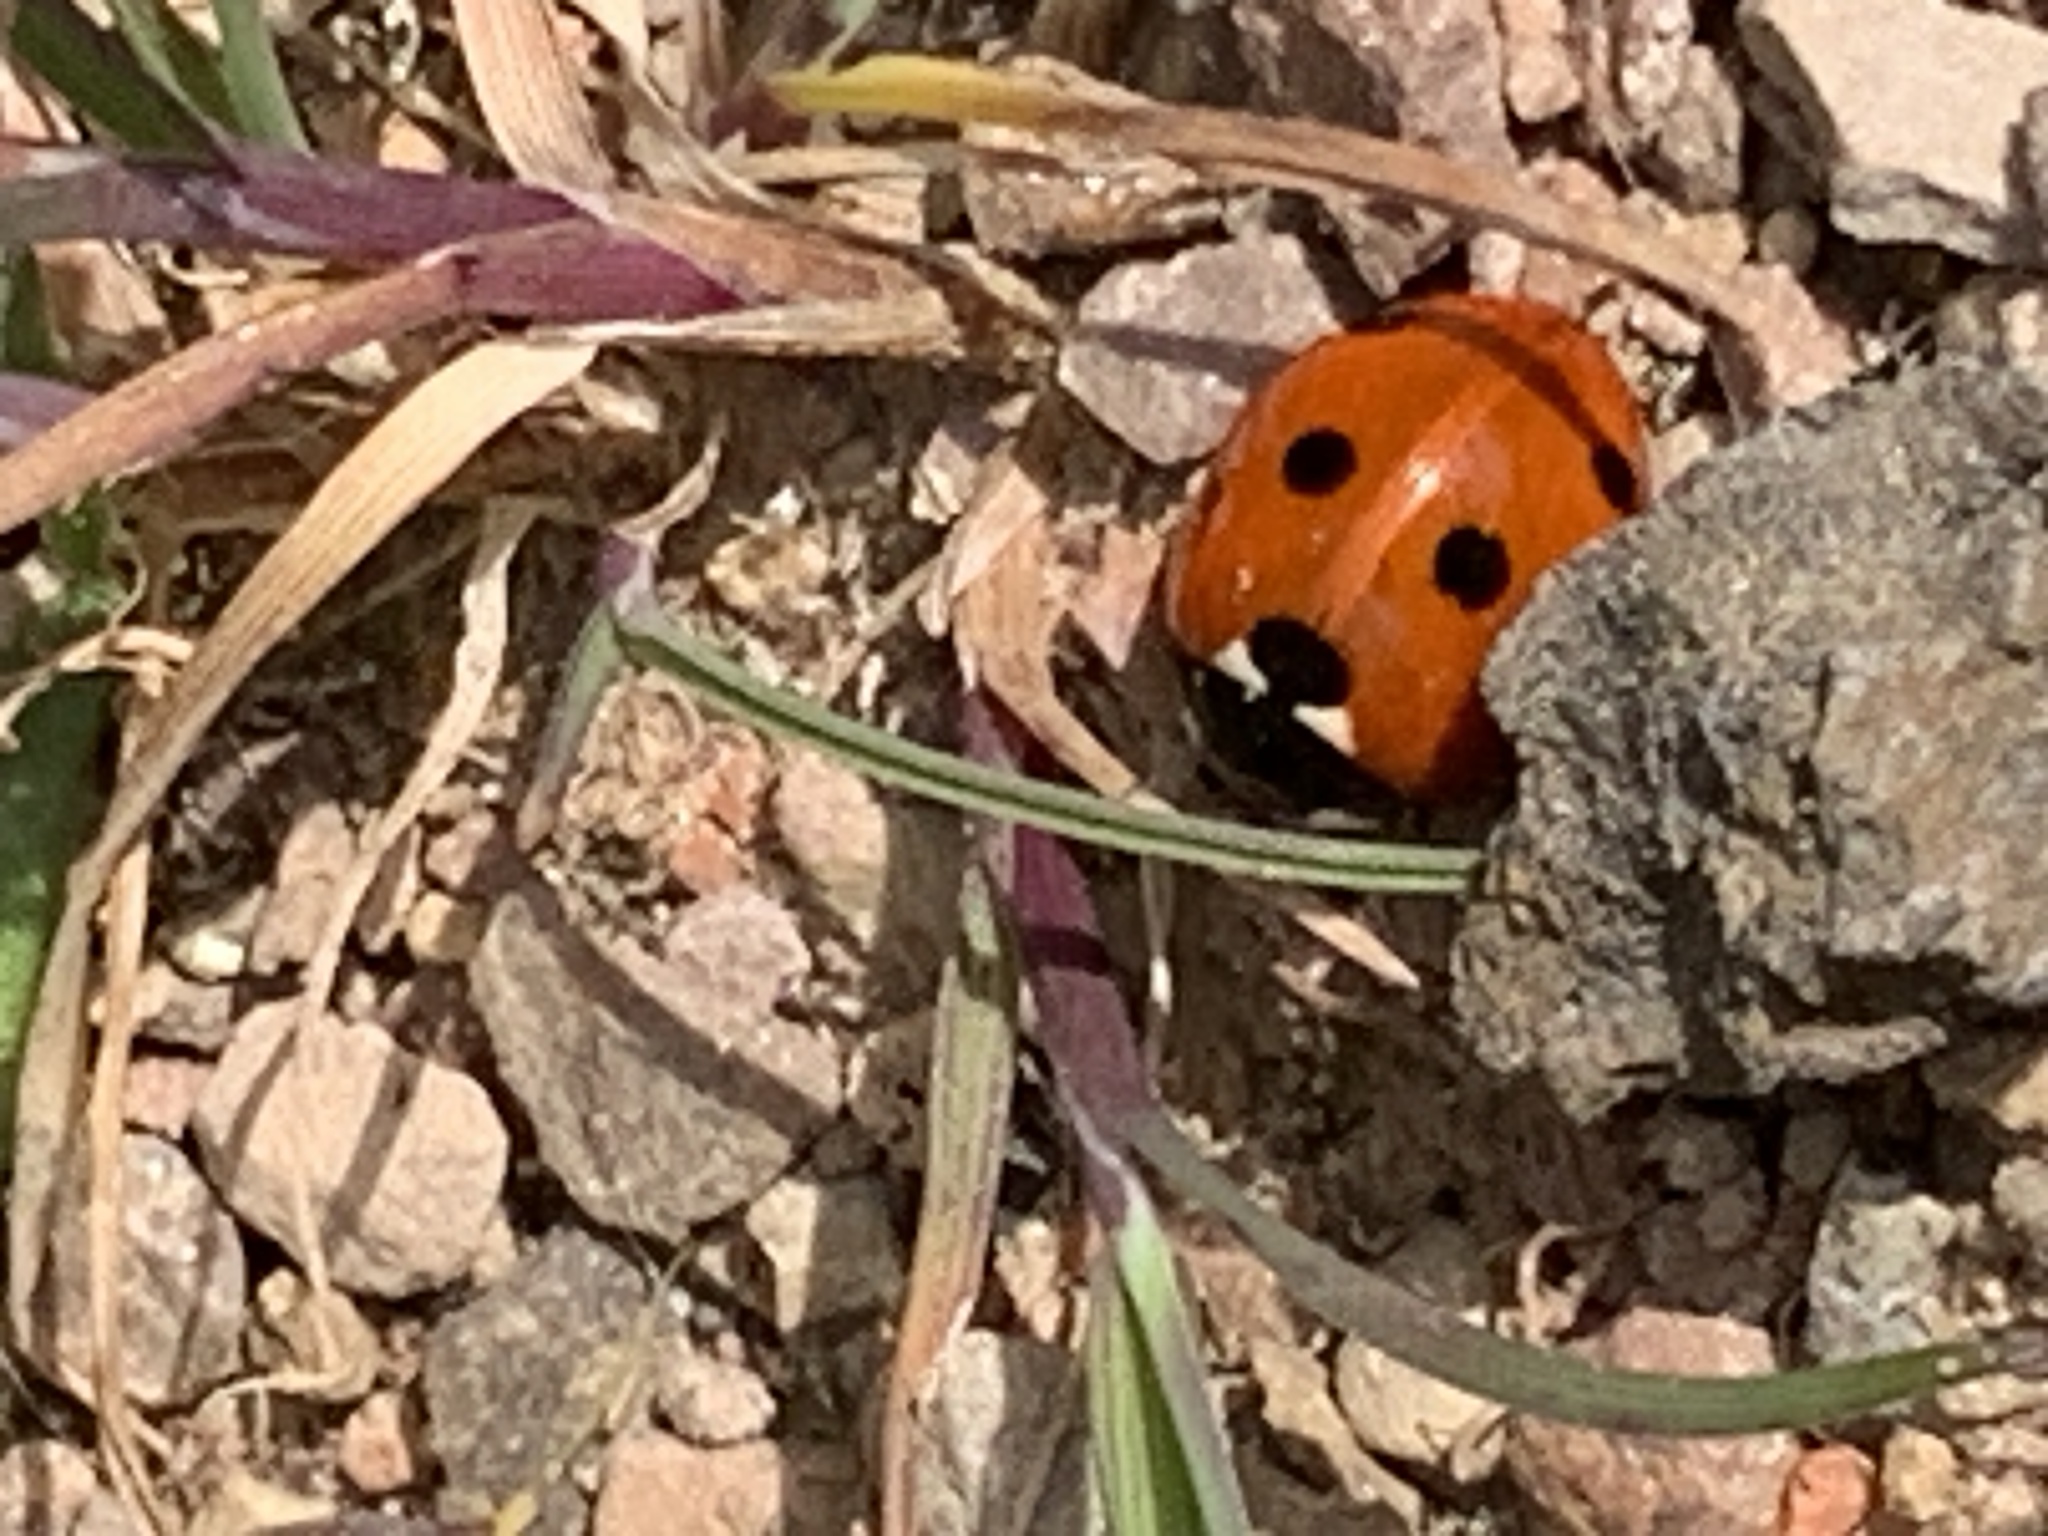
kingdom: Animalia
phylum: Arthropoda
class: Insecta
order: Coleoptera
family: Coccinellidae
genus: Coccinella
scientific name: Coccinella septempunctata
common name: Sevenspotted lady beetle
